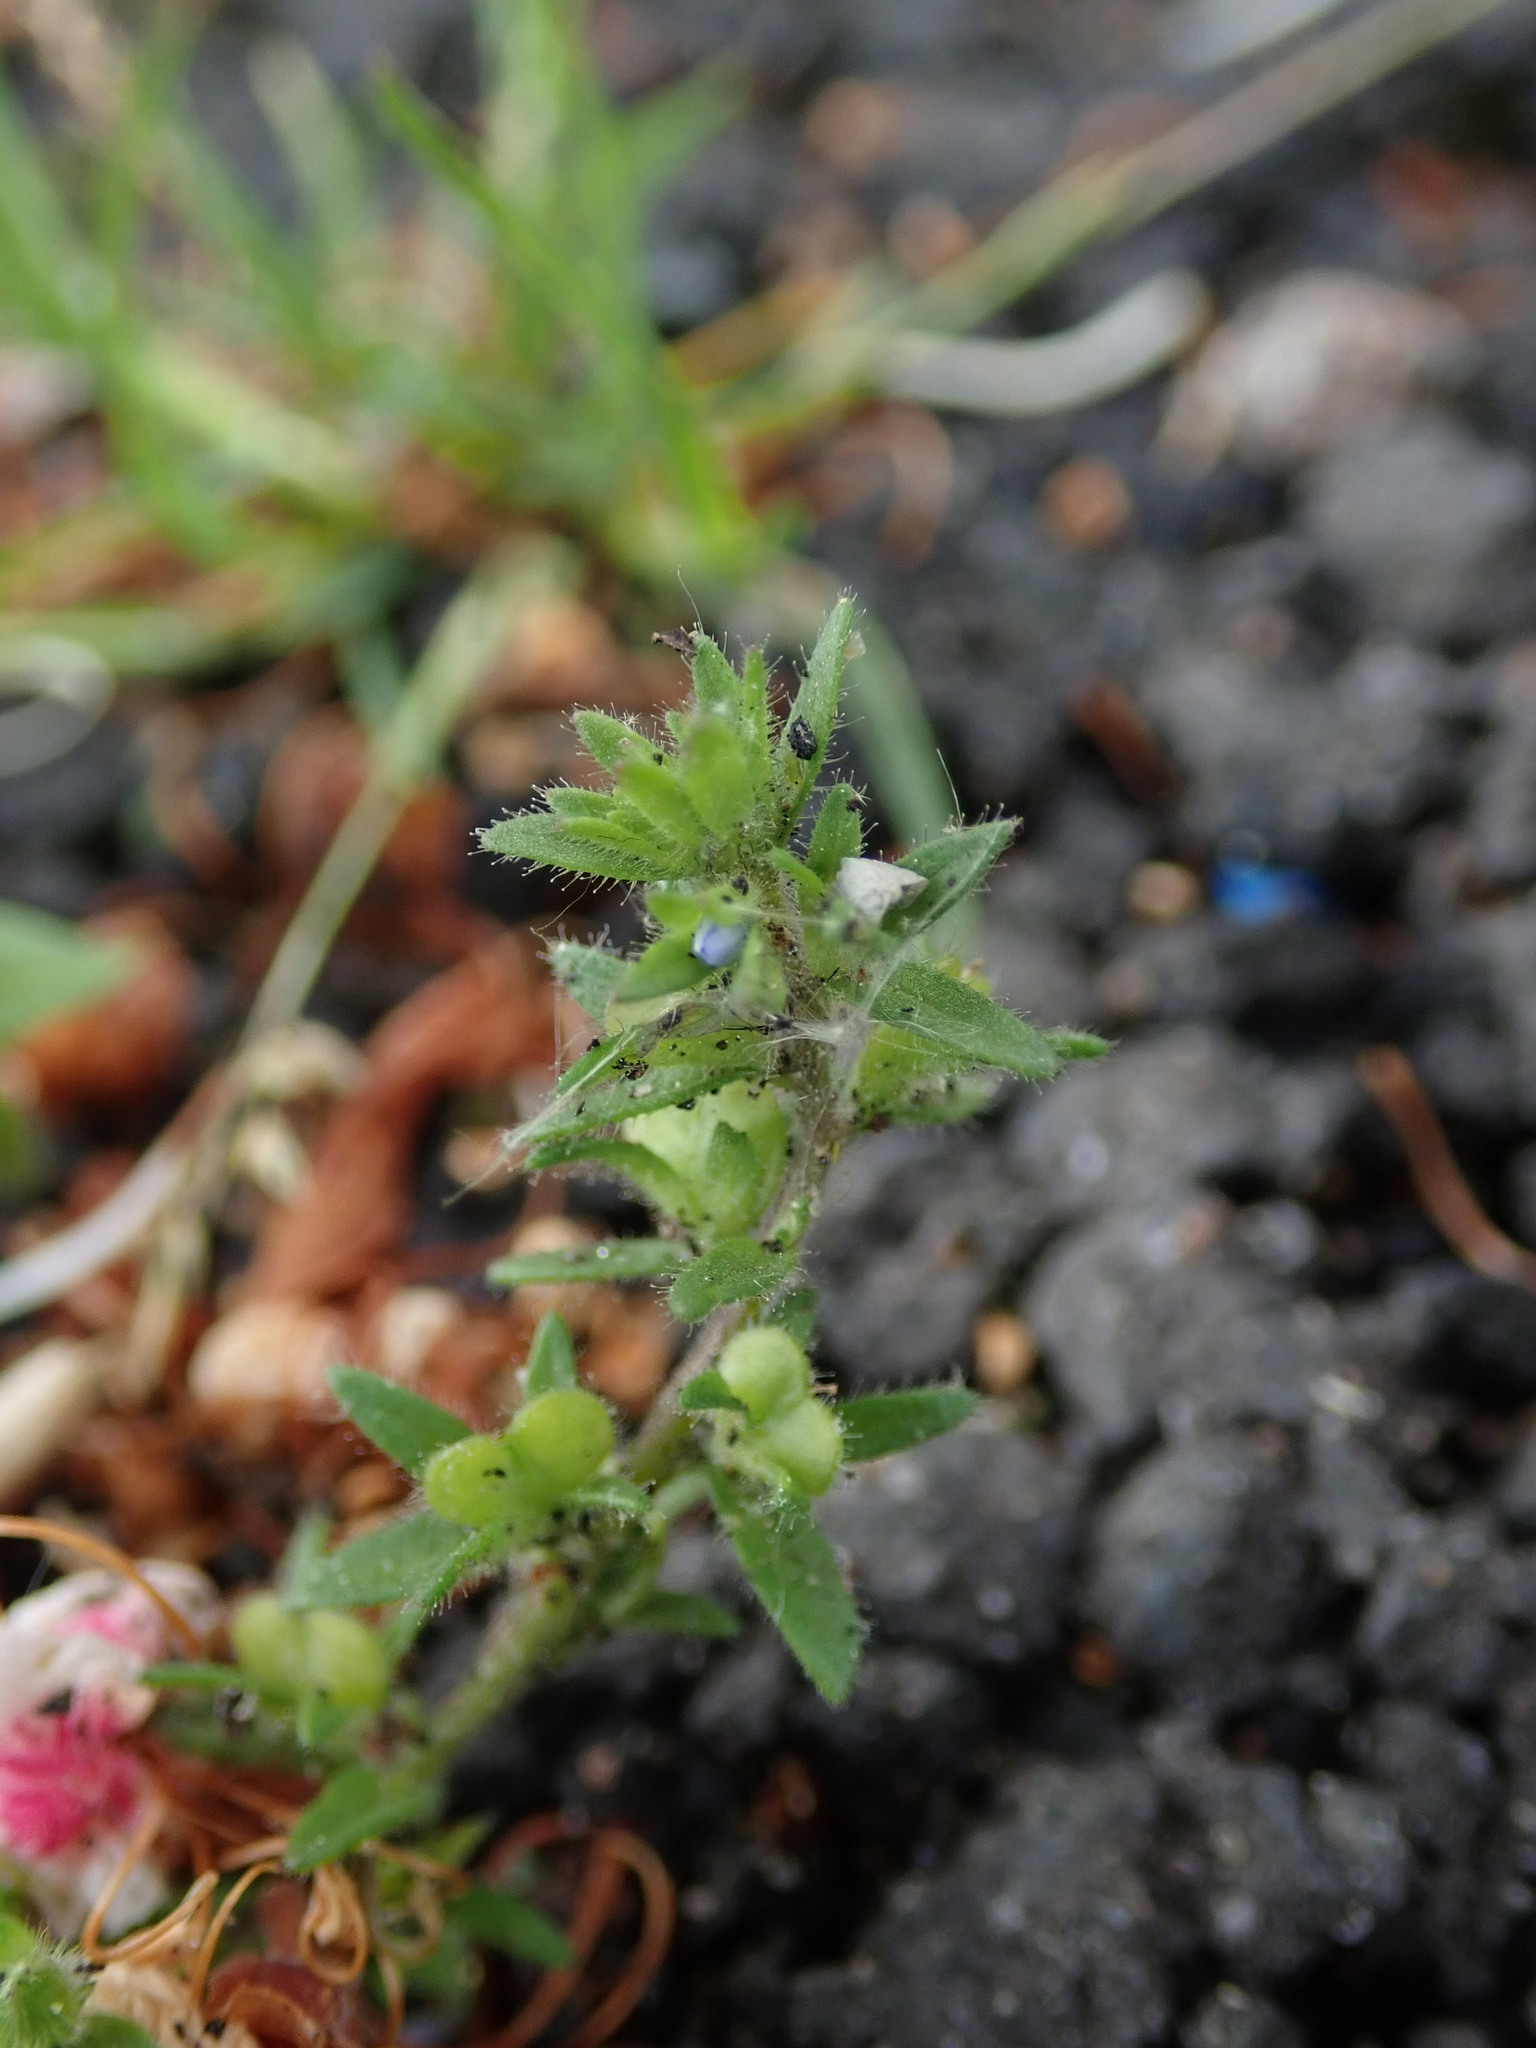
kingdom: Plantae
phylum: Tracheophyta
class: Magnoliopsida
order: Lamiales
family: Plantaginaceae
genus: Veronica
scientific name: Veronica arvensis
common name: Corn speedwell
